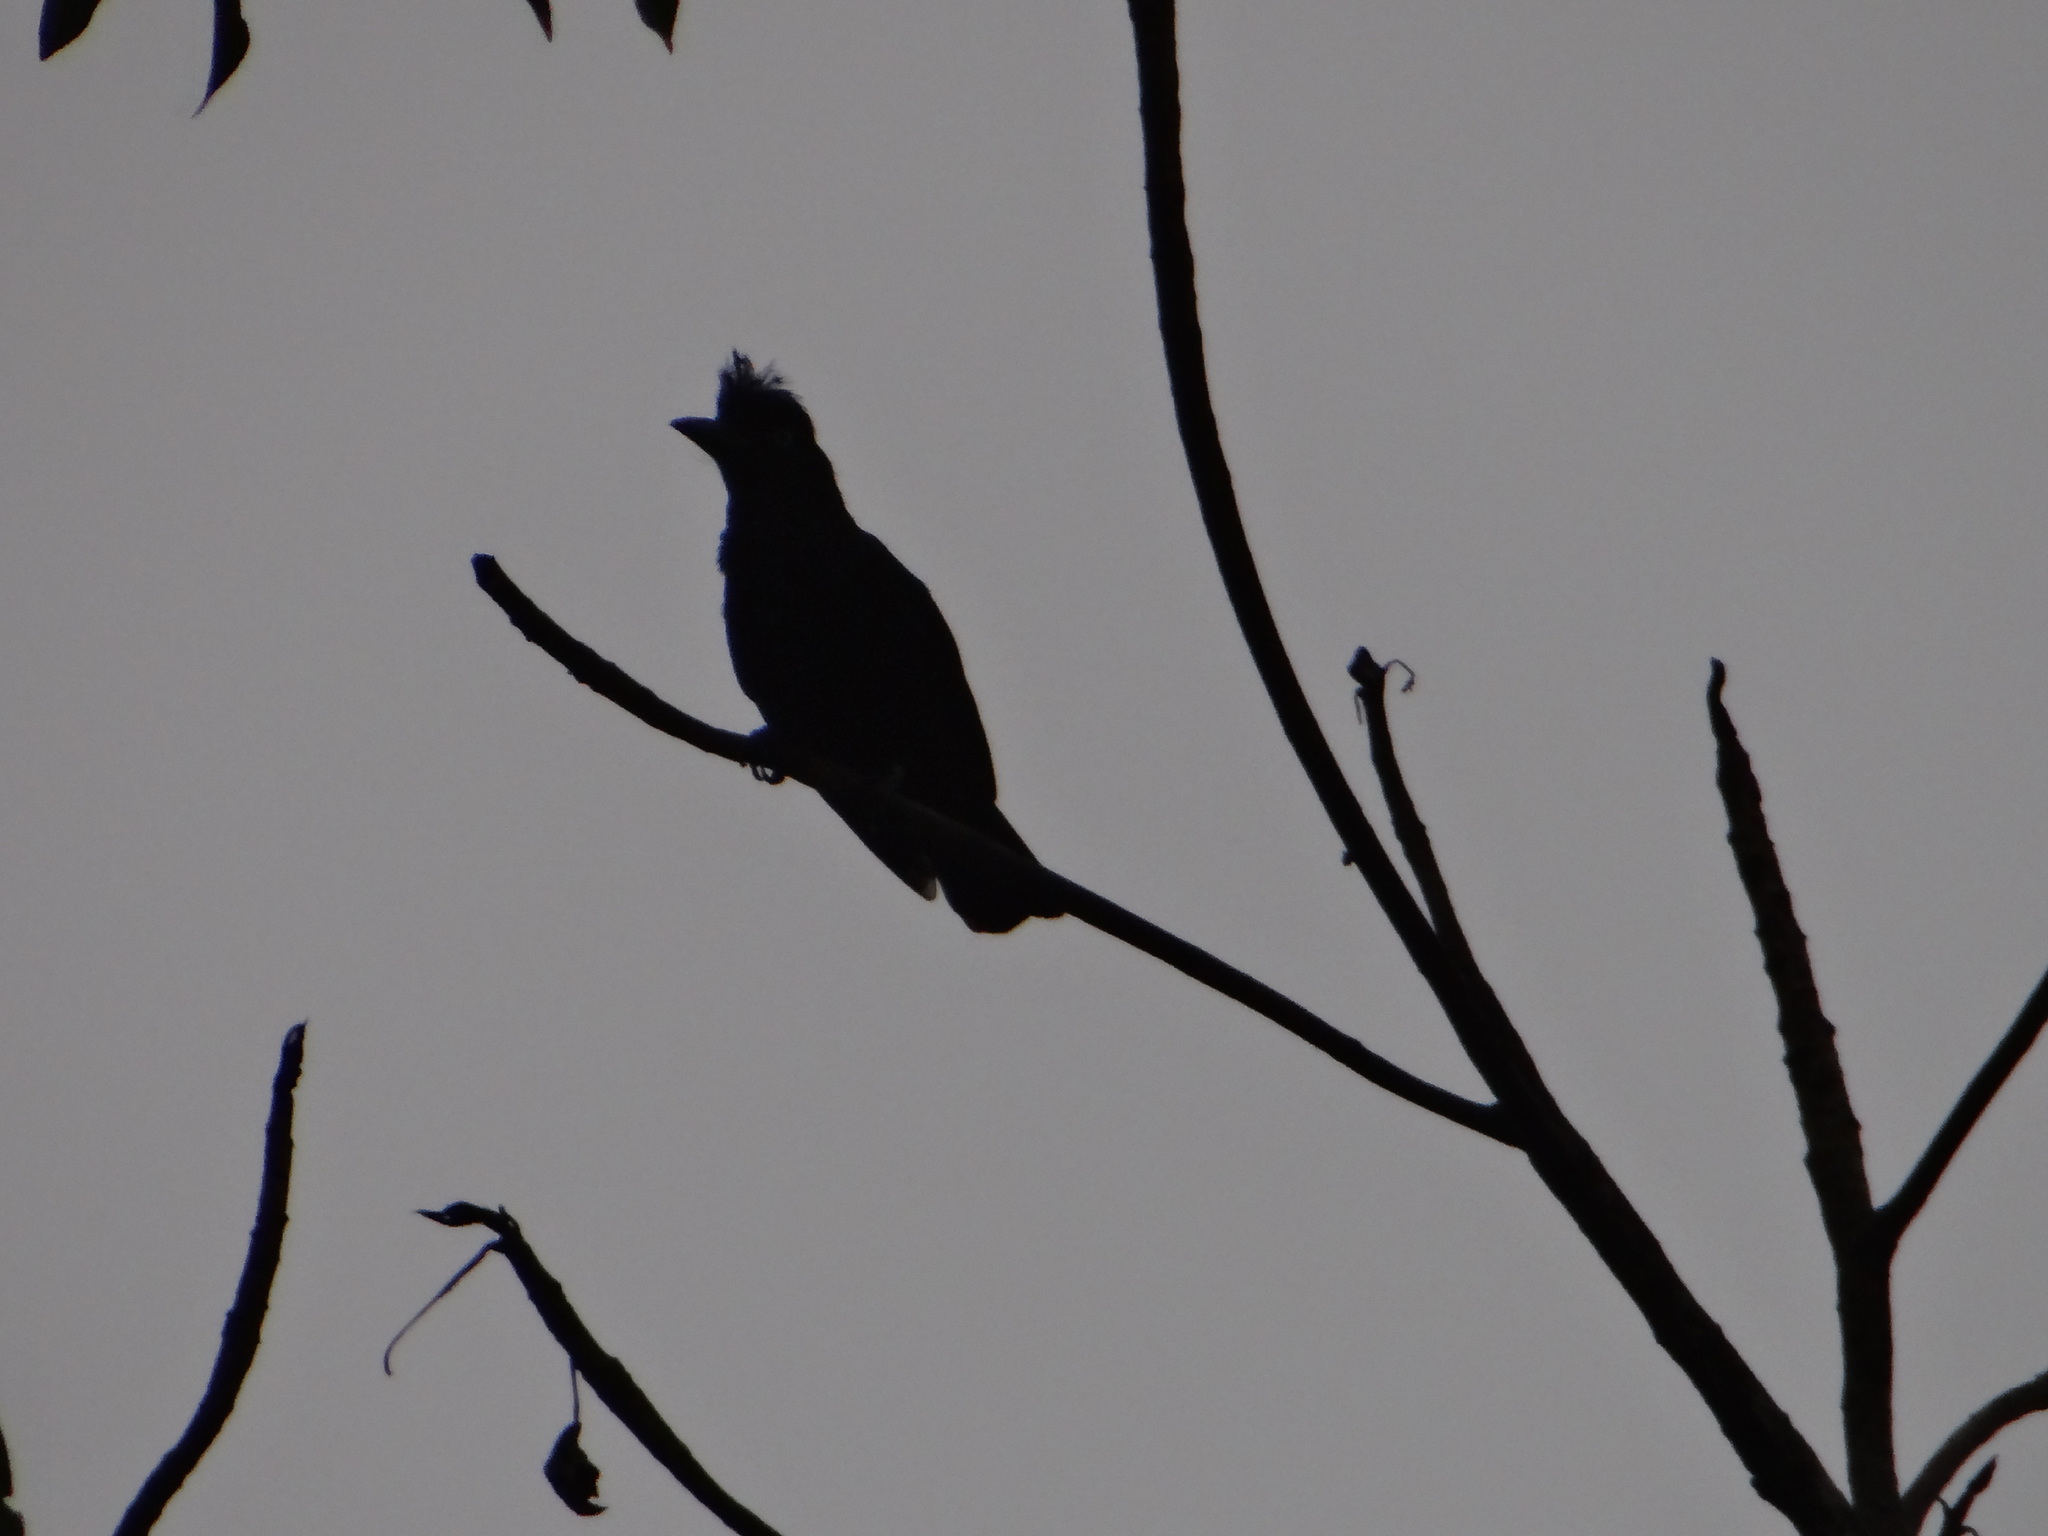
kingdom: Animalia
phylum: Chordata
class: Aves
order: Passeriformes
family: Cotingidae
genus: Cephalopterus
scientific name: Cephalopterus ornatus
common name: Amazonian umbrellabird
